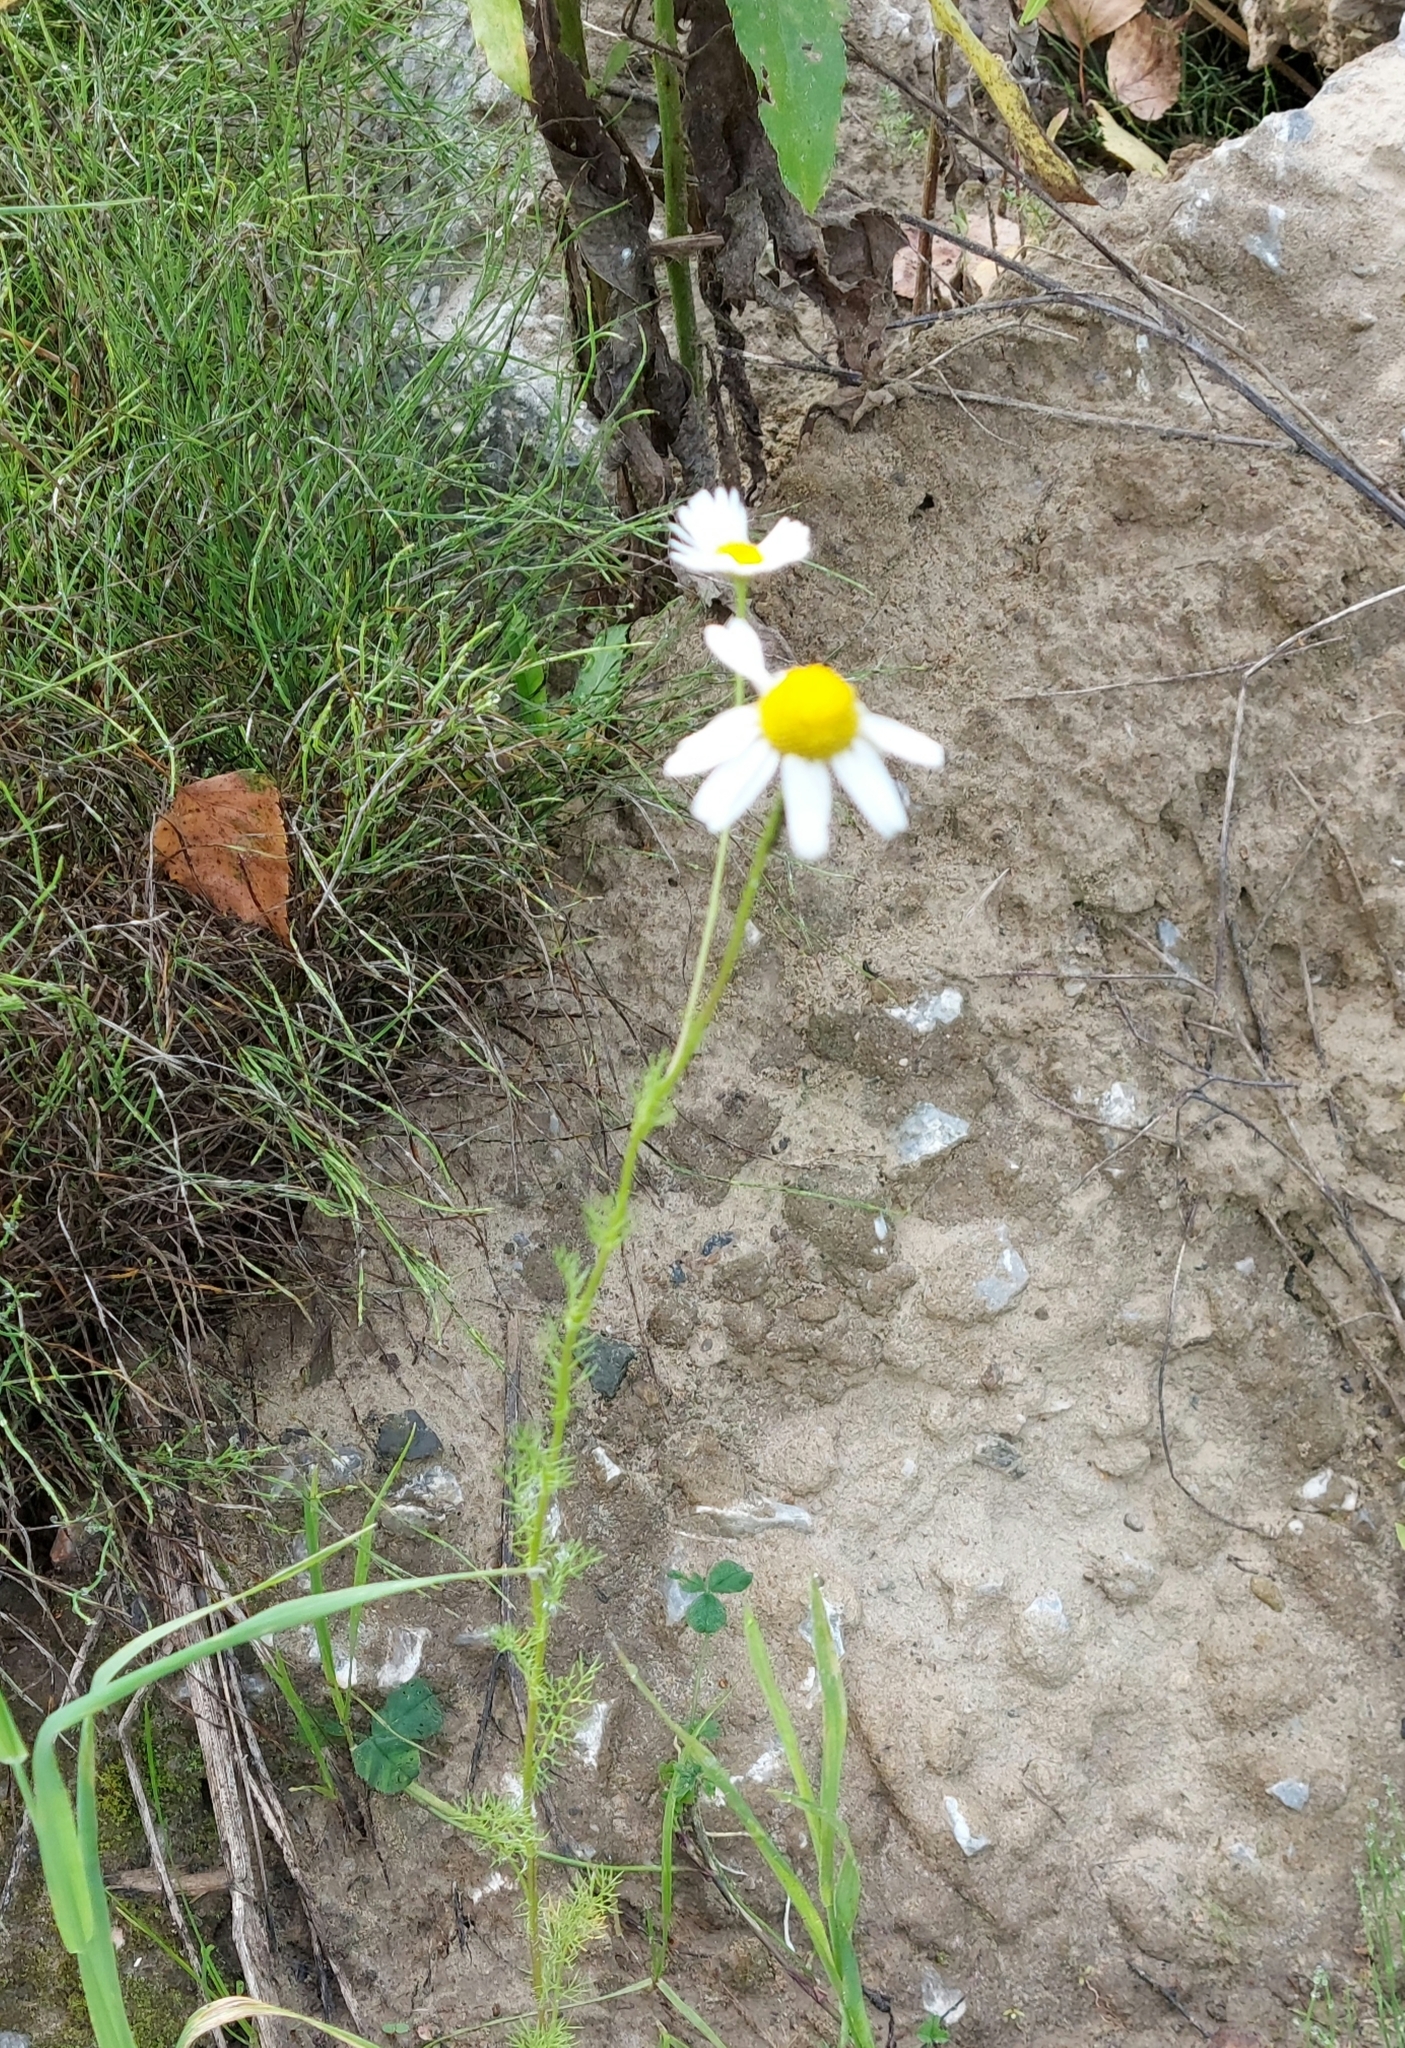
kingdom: Plantae
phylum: Tracheophyta
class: Magnoliopsida
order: Asterales
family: Asteraceae
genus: Tripleurospermum
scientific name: Tripleurospermum inodorum
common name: Scentless mayweed
